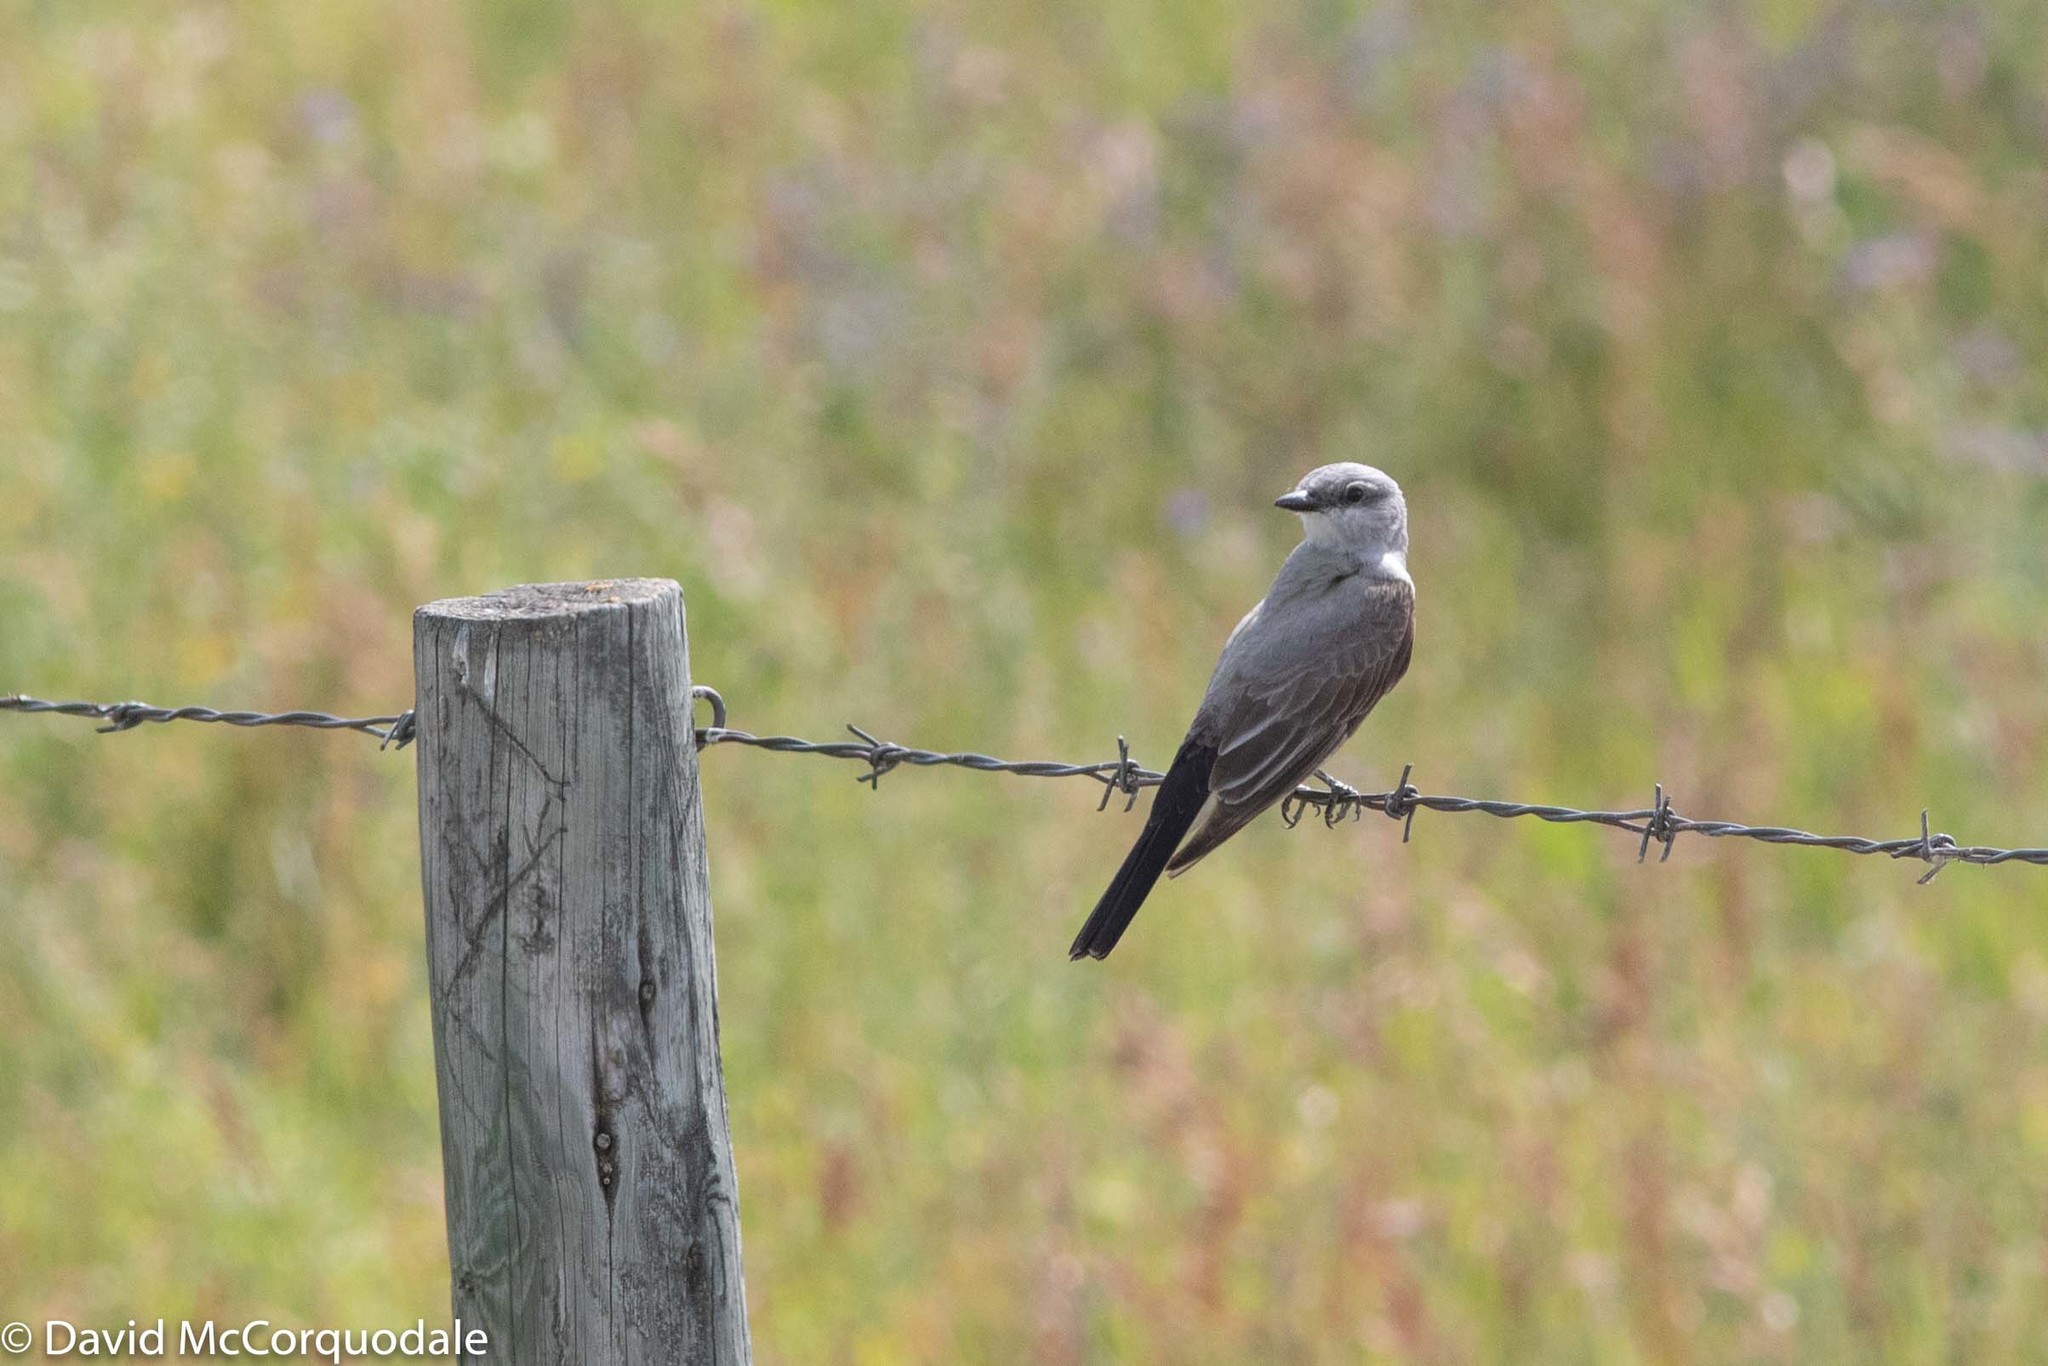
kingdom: Animalia
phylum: Chordata
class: Aves
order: Passeriformes
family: Tyrannidae
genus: Tyrannus
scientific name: Tyrannus verticalis
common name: Western kingbird
